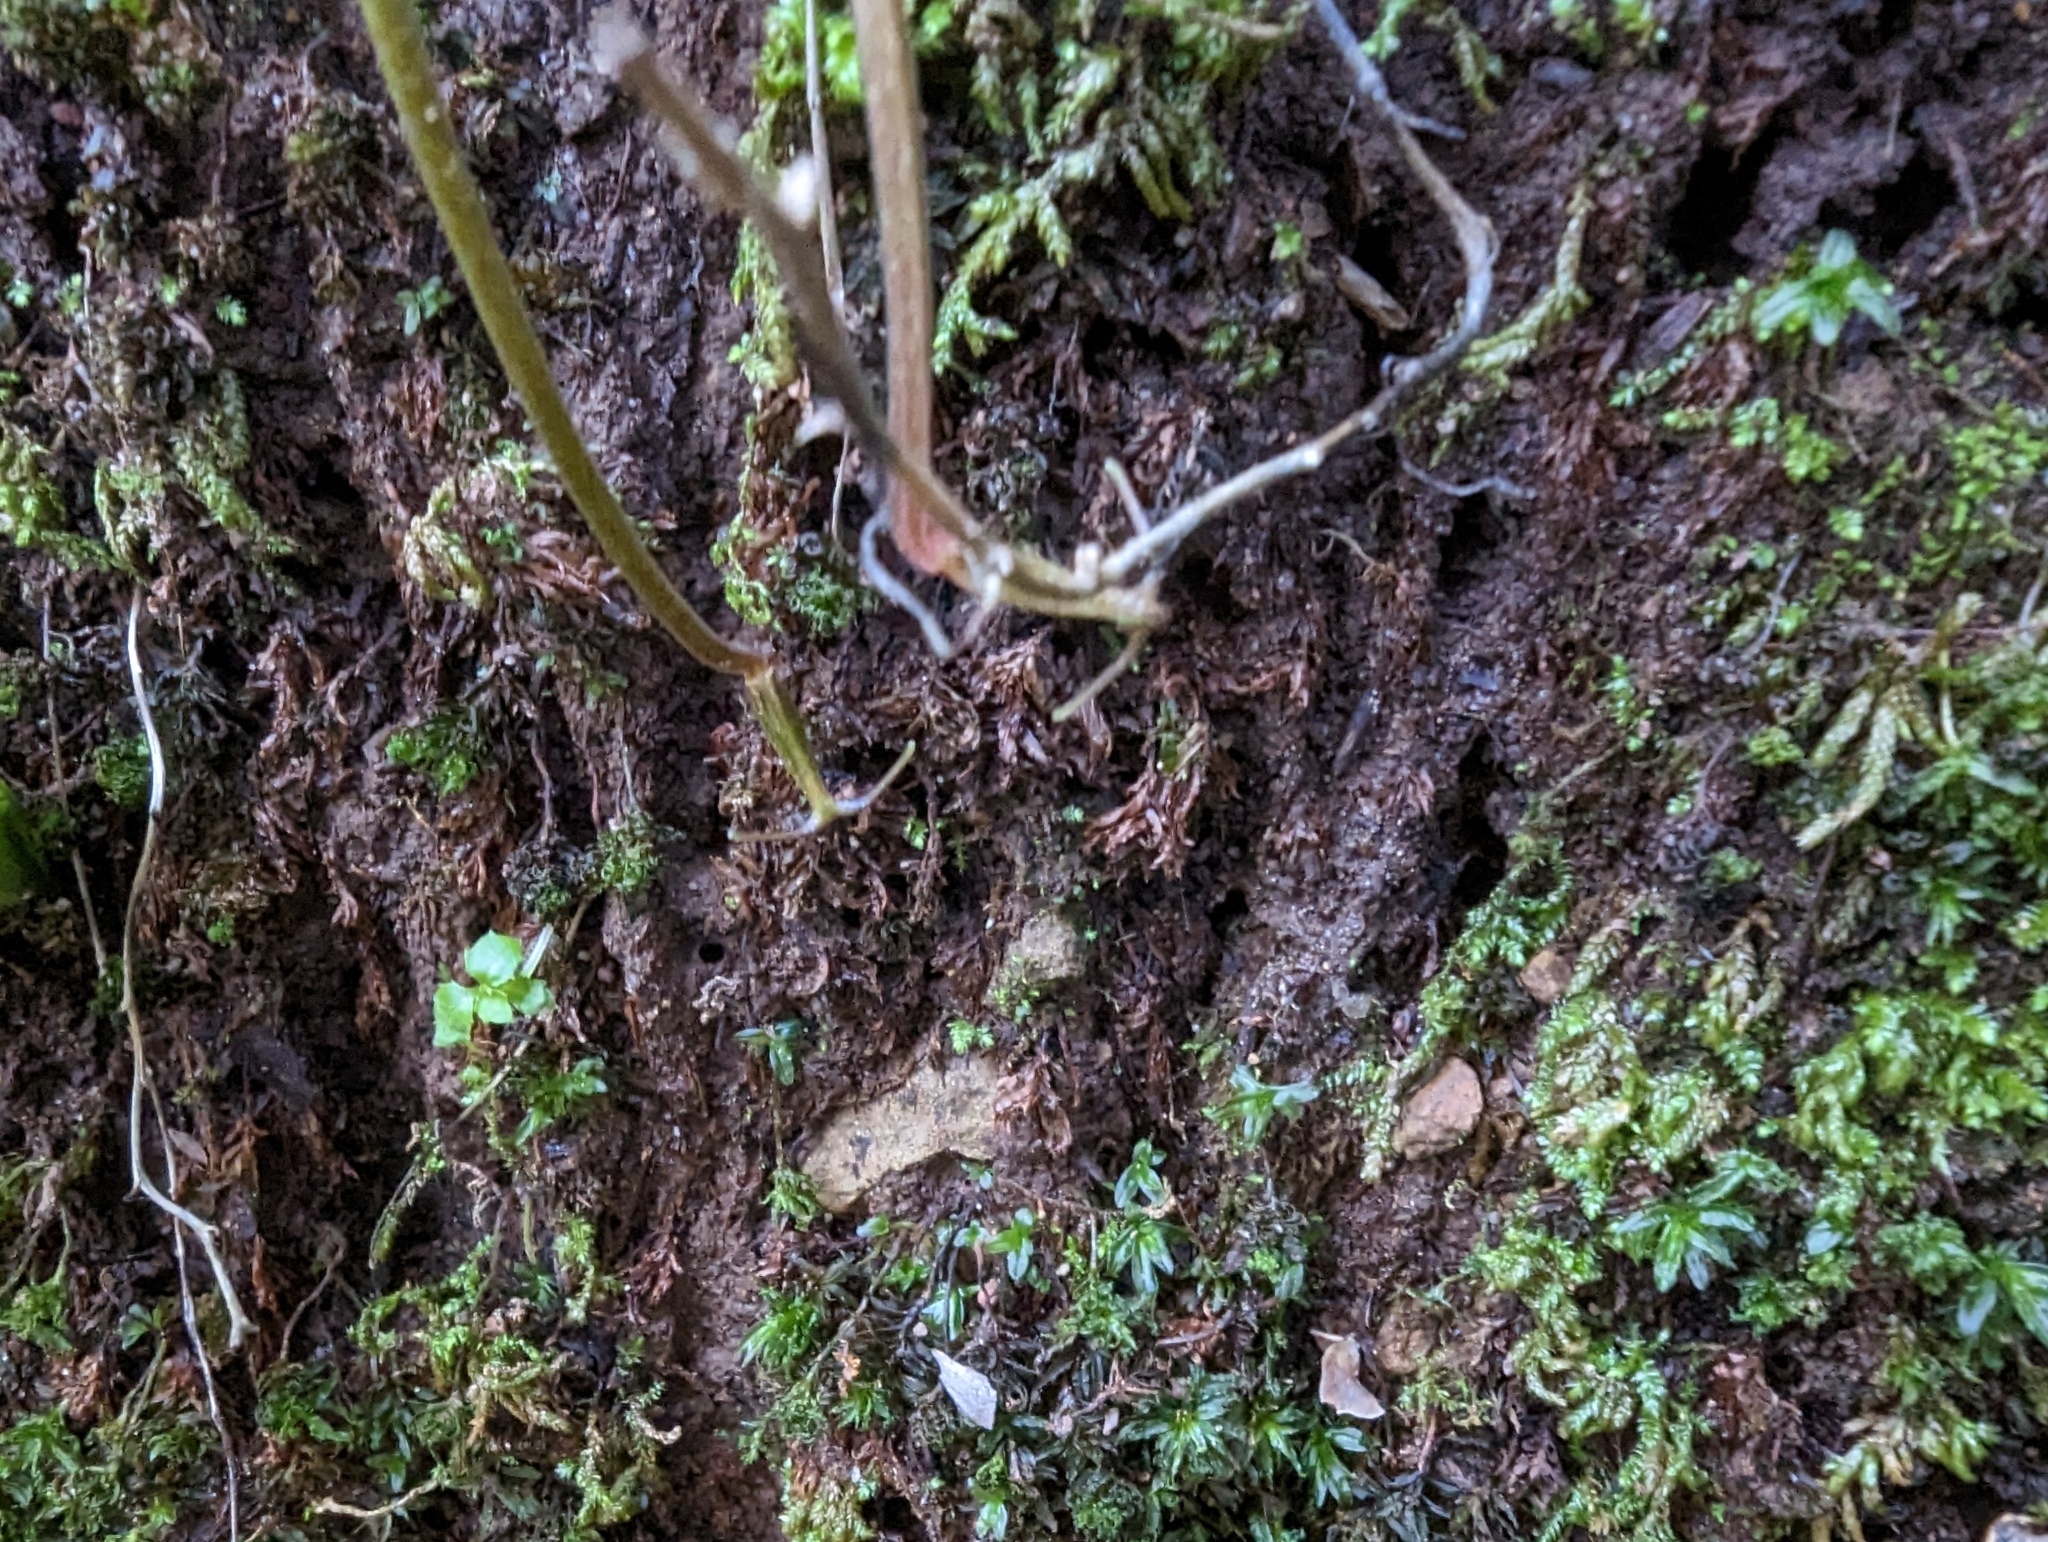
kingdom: Plantae
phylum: Tracheophyta
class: Liliopsida
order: Liliales
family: Liliaceae
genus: Scoliopus
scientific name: Scoliopus bigelovii
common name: Foetid adder's-tongue
